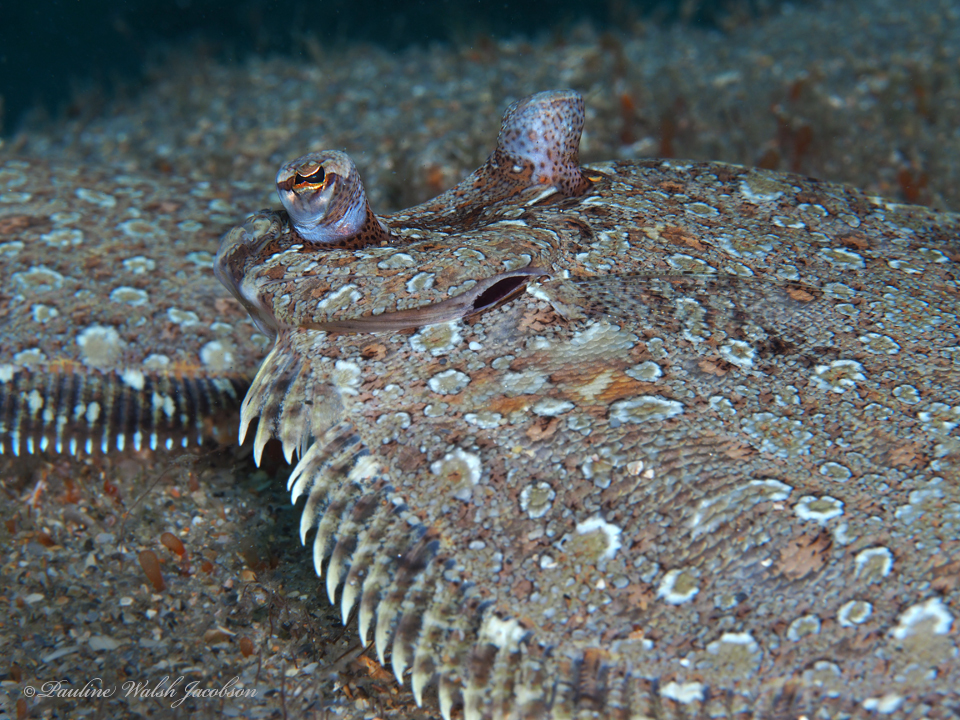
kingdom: Animalia
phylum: Chordata
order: Pleuronectiformes
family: Bothidae
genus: Bothus
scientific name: Bothus ocellatus
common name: Eyed flounder
